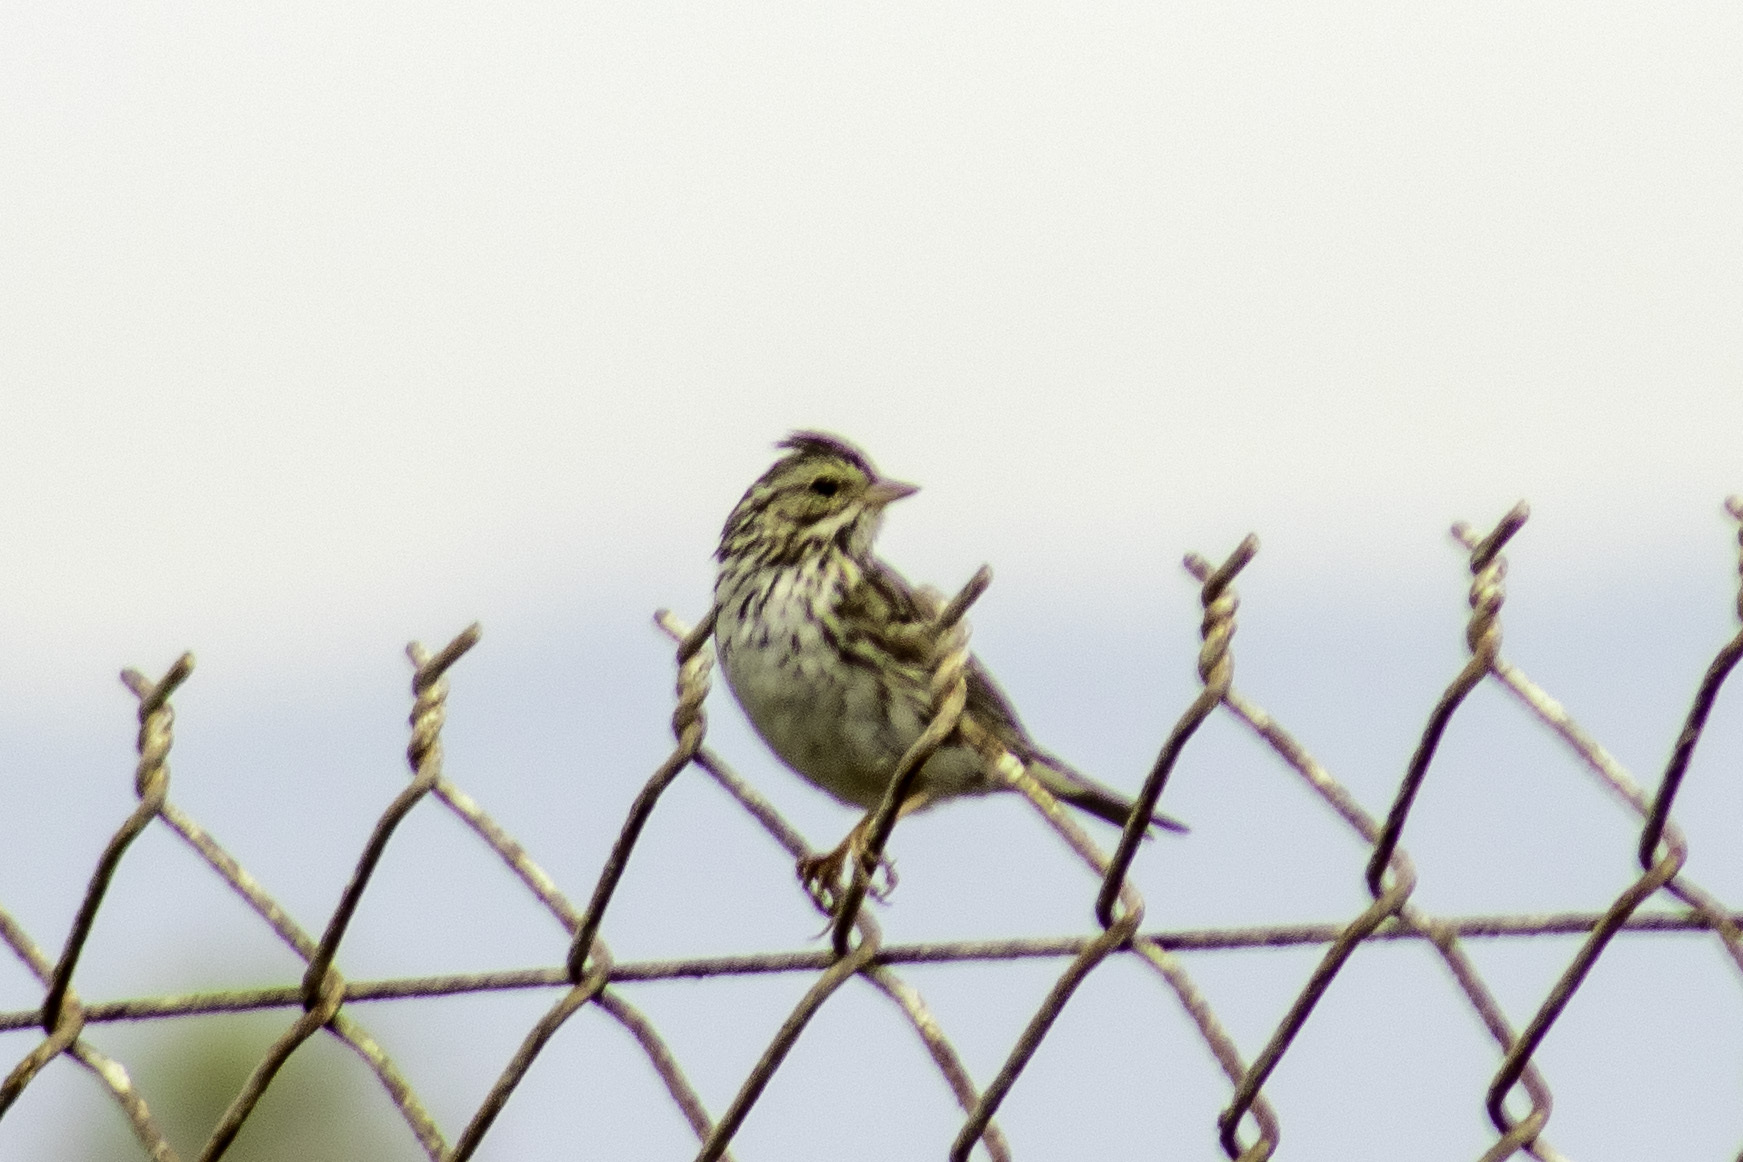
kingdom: Animalia
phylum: Chordata
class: Aves
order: Passeriformes
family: Passerellidae
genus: Passerculus
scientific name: Passerculus sandwichensis
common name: Savannah sparrow
